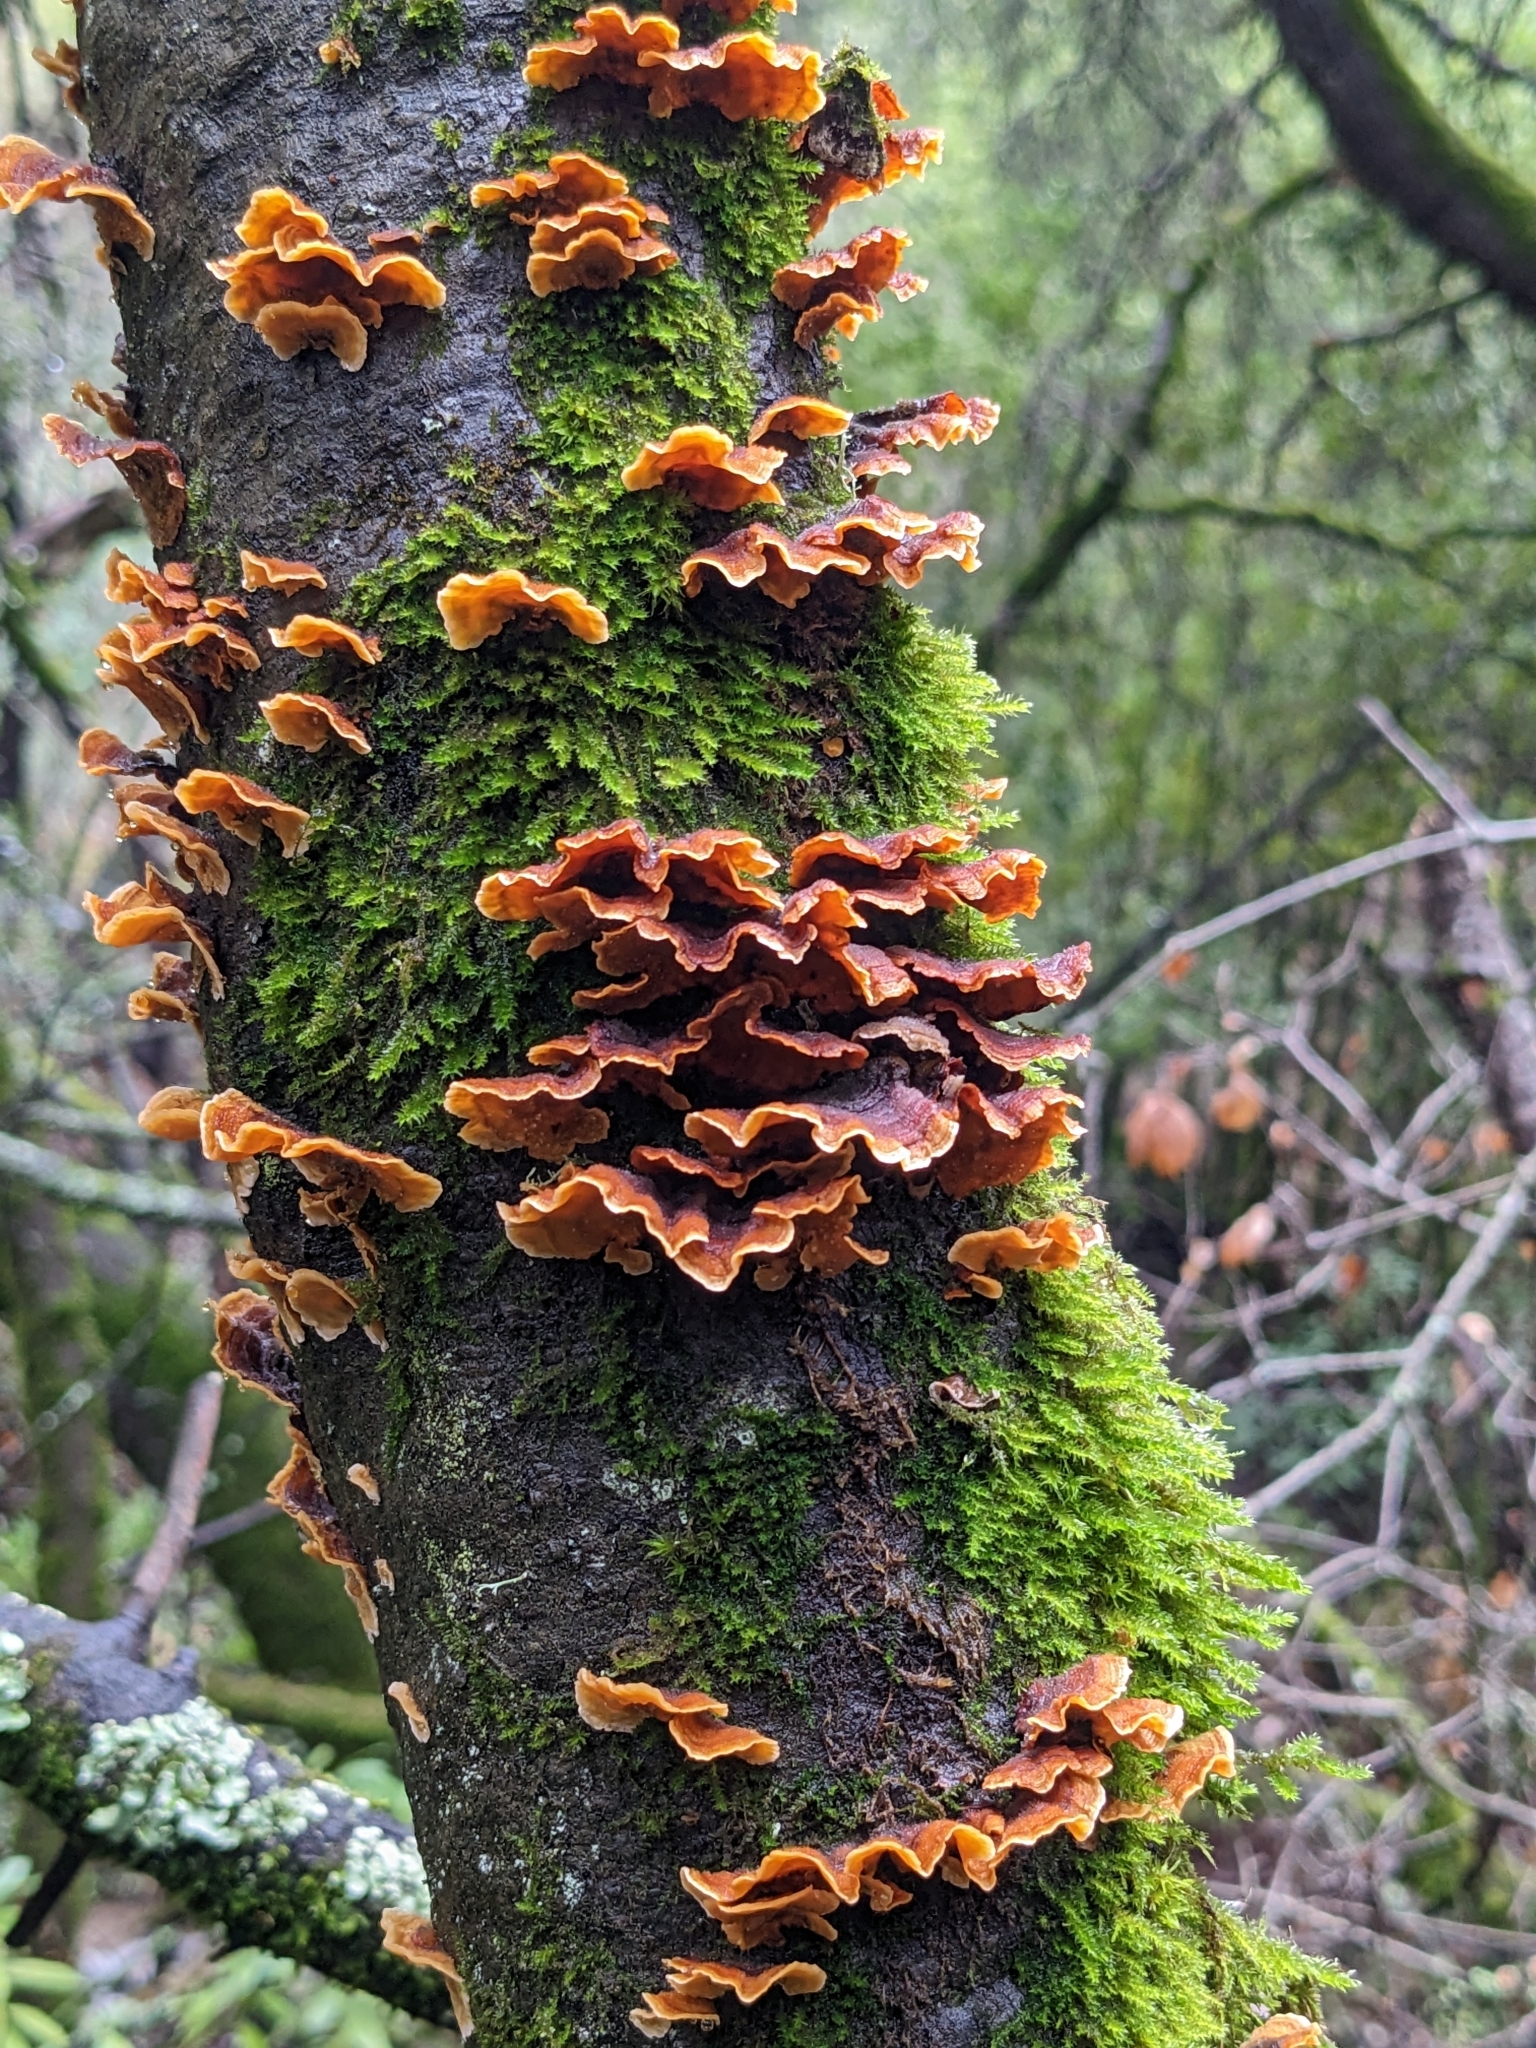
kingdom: Fungi
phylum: Basidiomycota
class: Agaricomycetes
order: Russulales
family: Stereaceae
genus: Stereum
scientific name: Stereum hirsutum
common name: Hairy curtain crust
